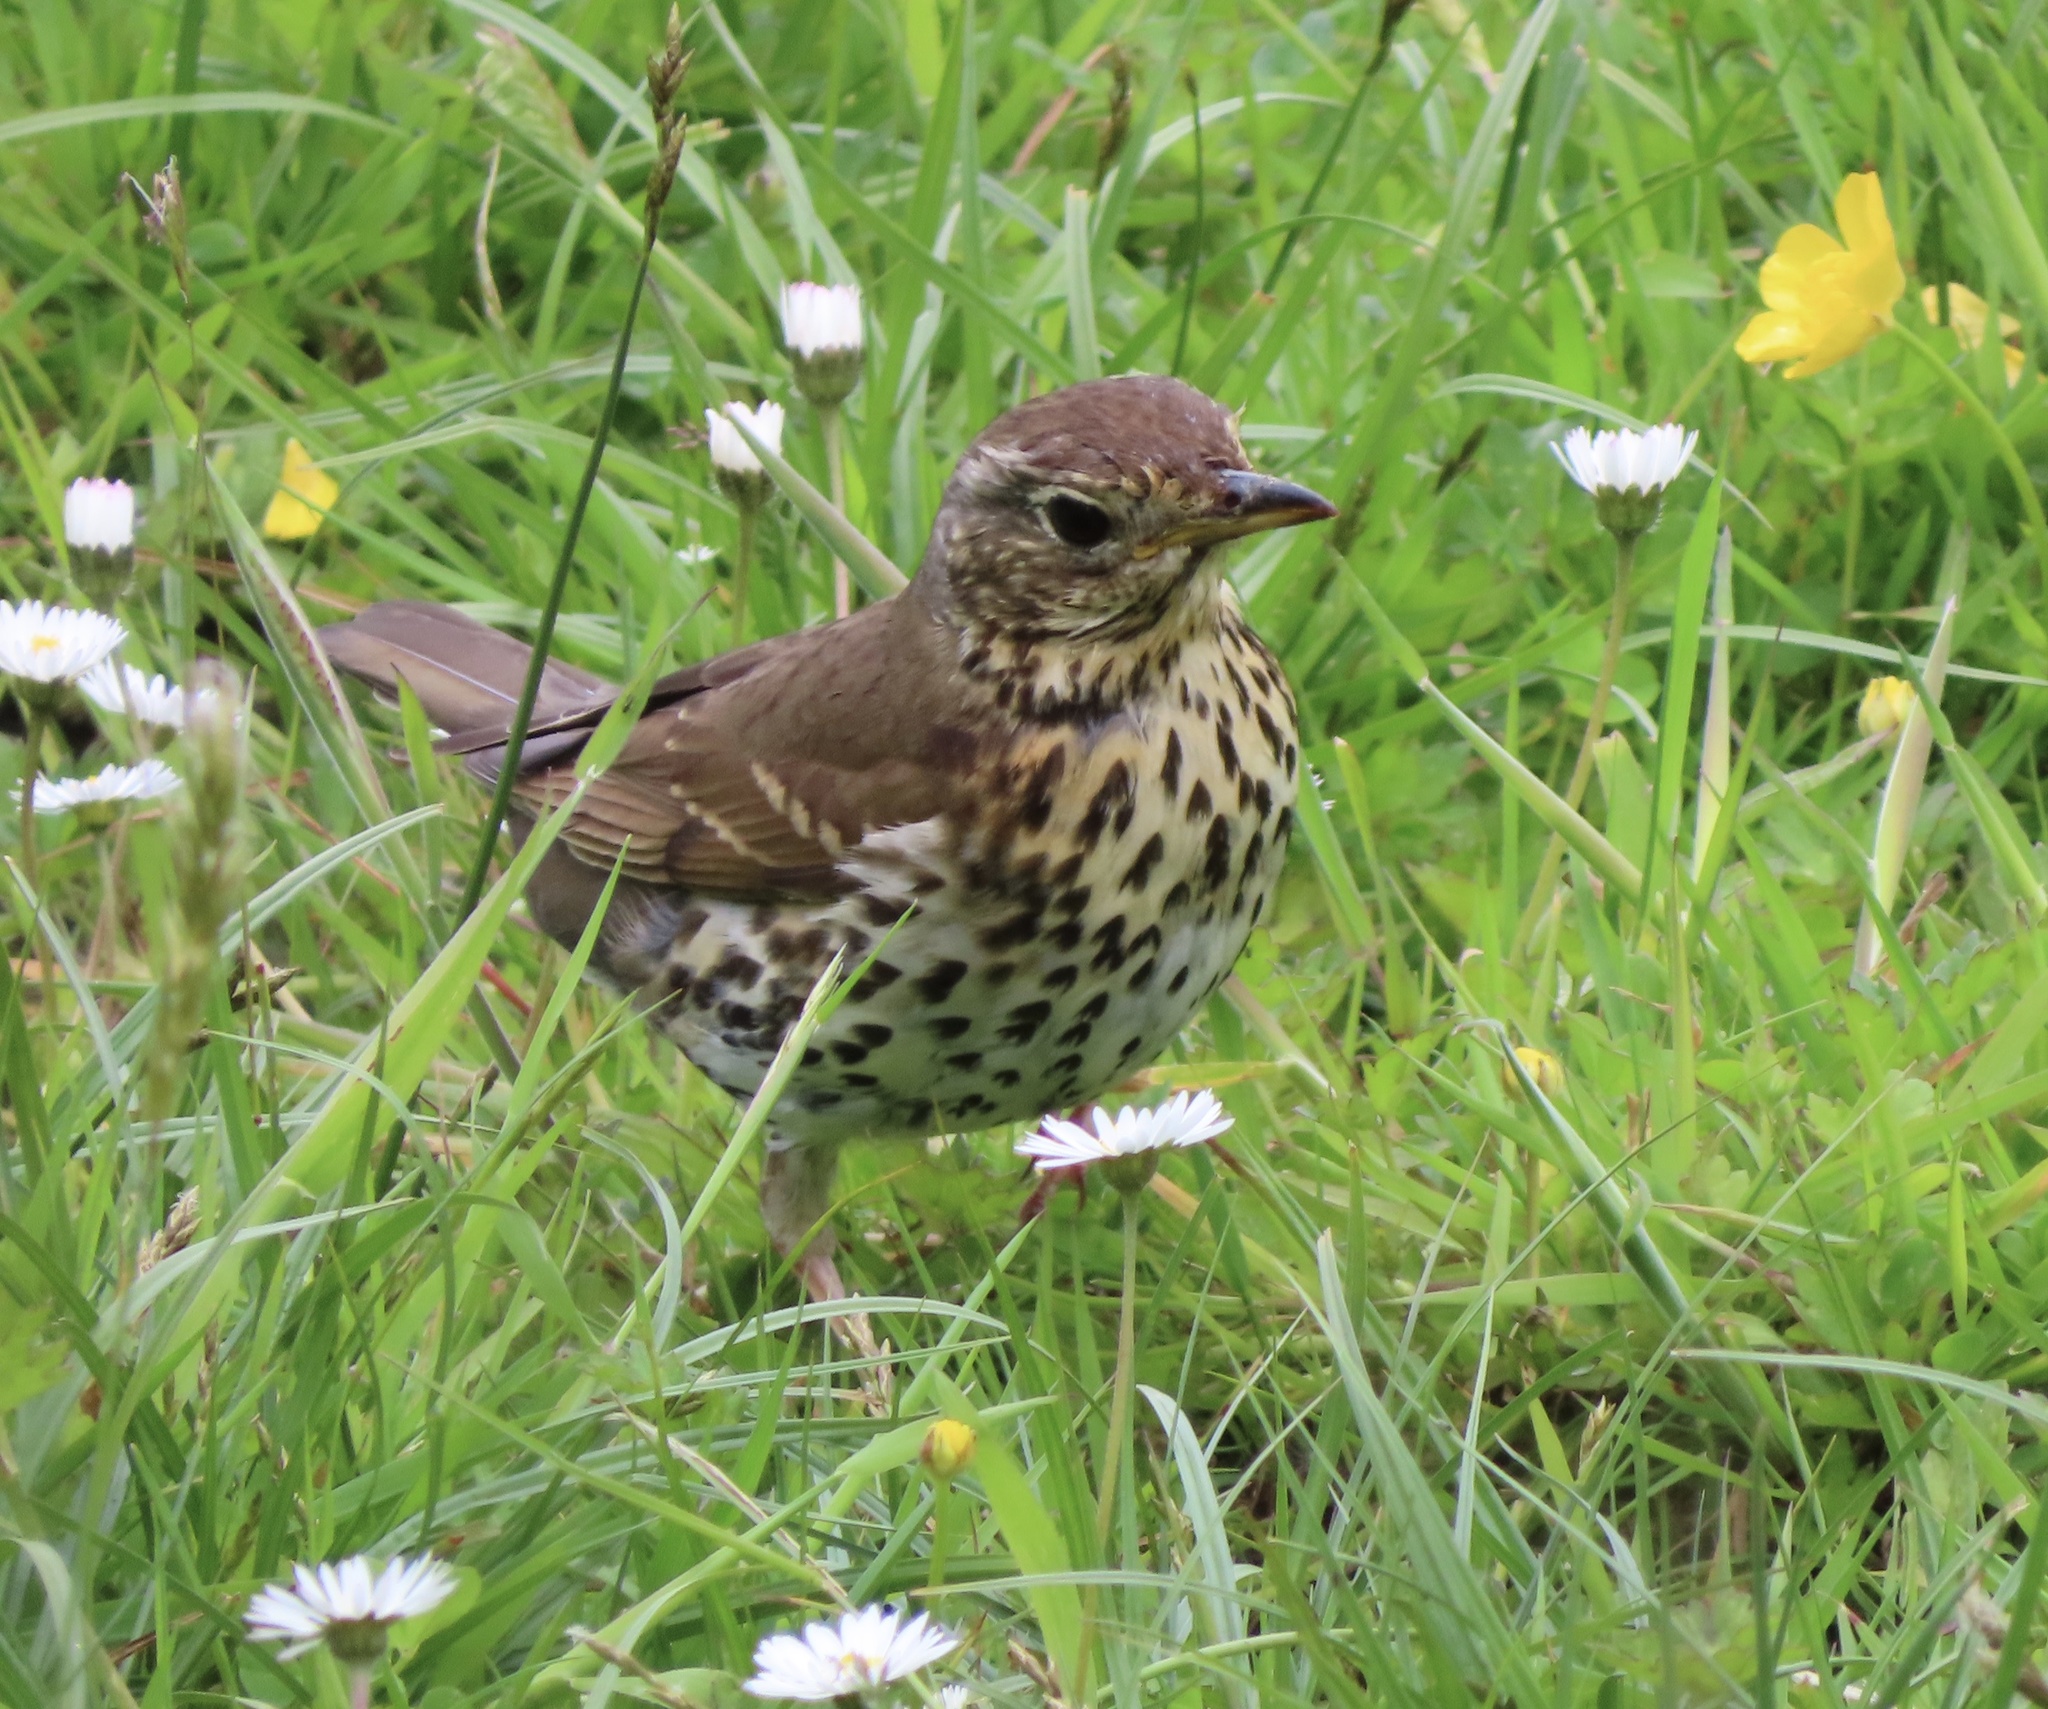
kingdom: Animalia
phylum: Chordata
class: Aves
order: Passeriformes
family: Turdidae
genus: Turdus
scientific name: Turdus philomelos
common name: Song thrush
